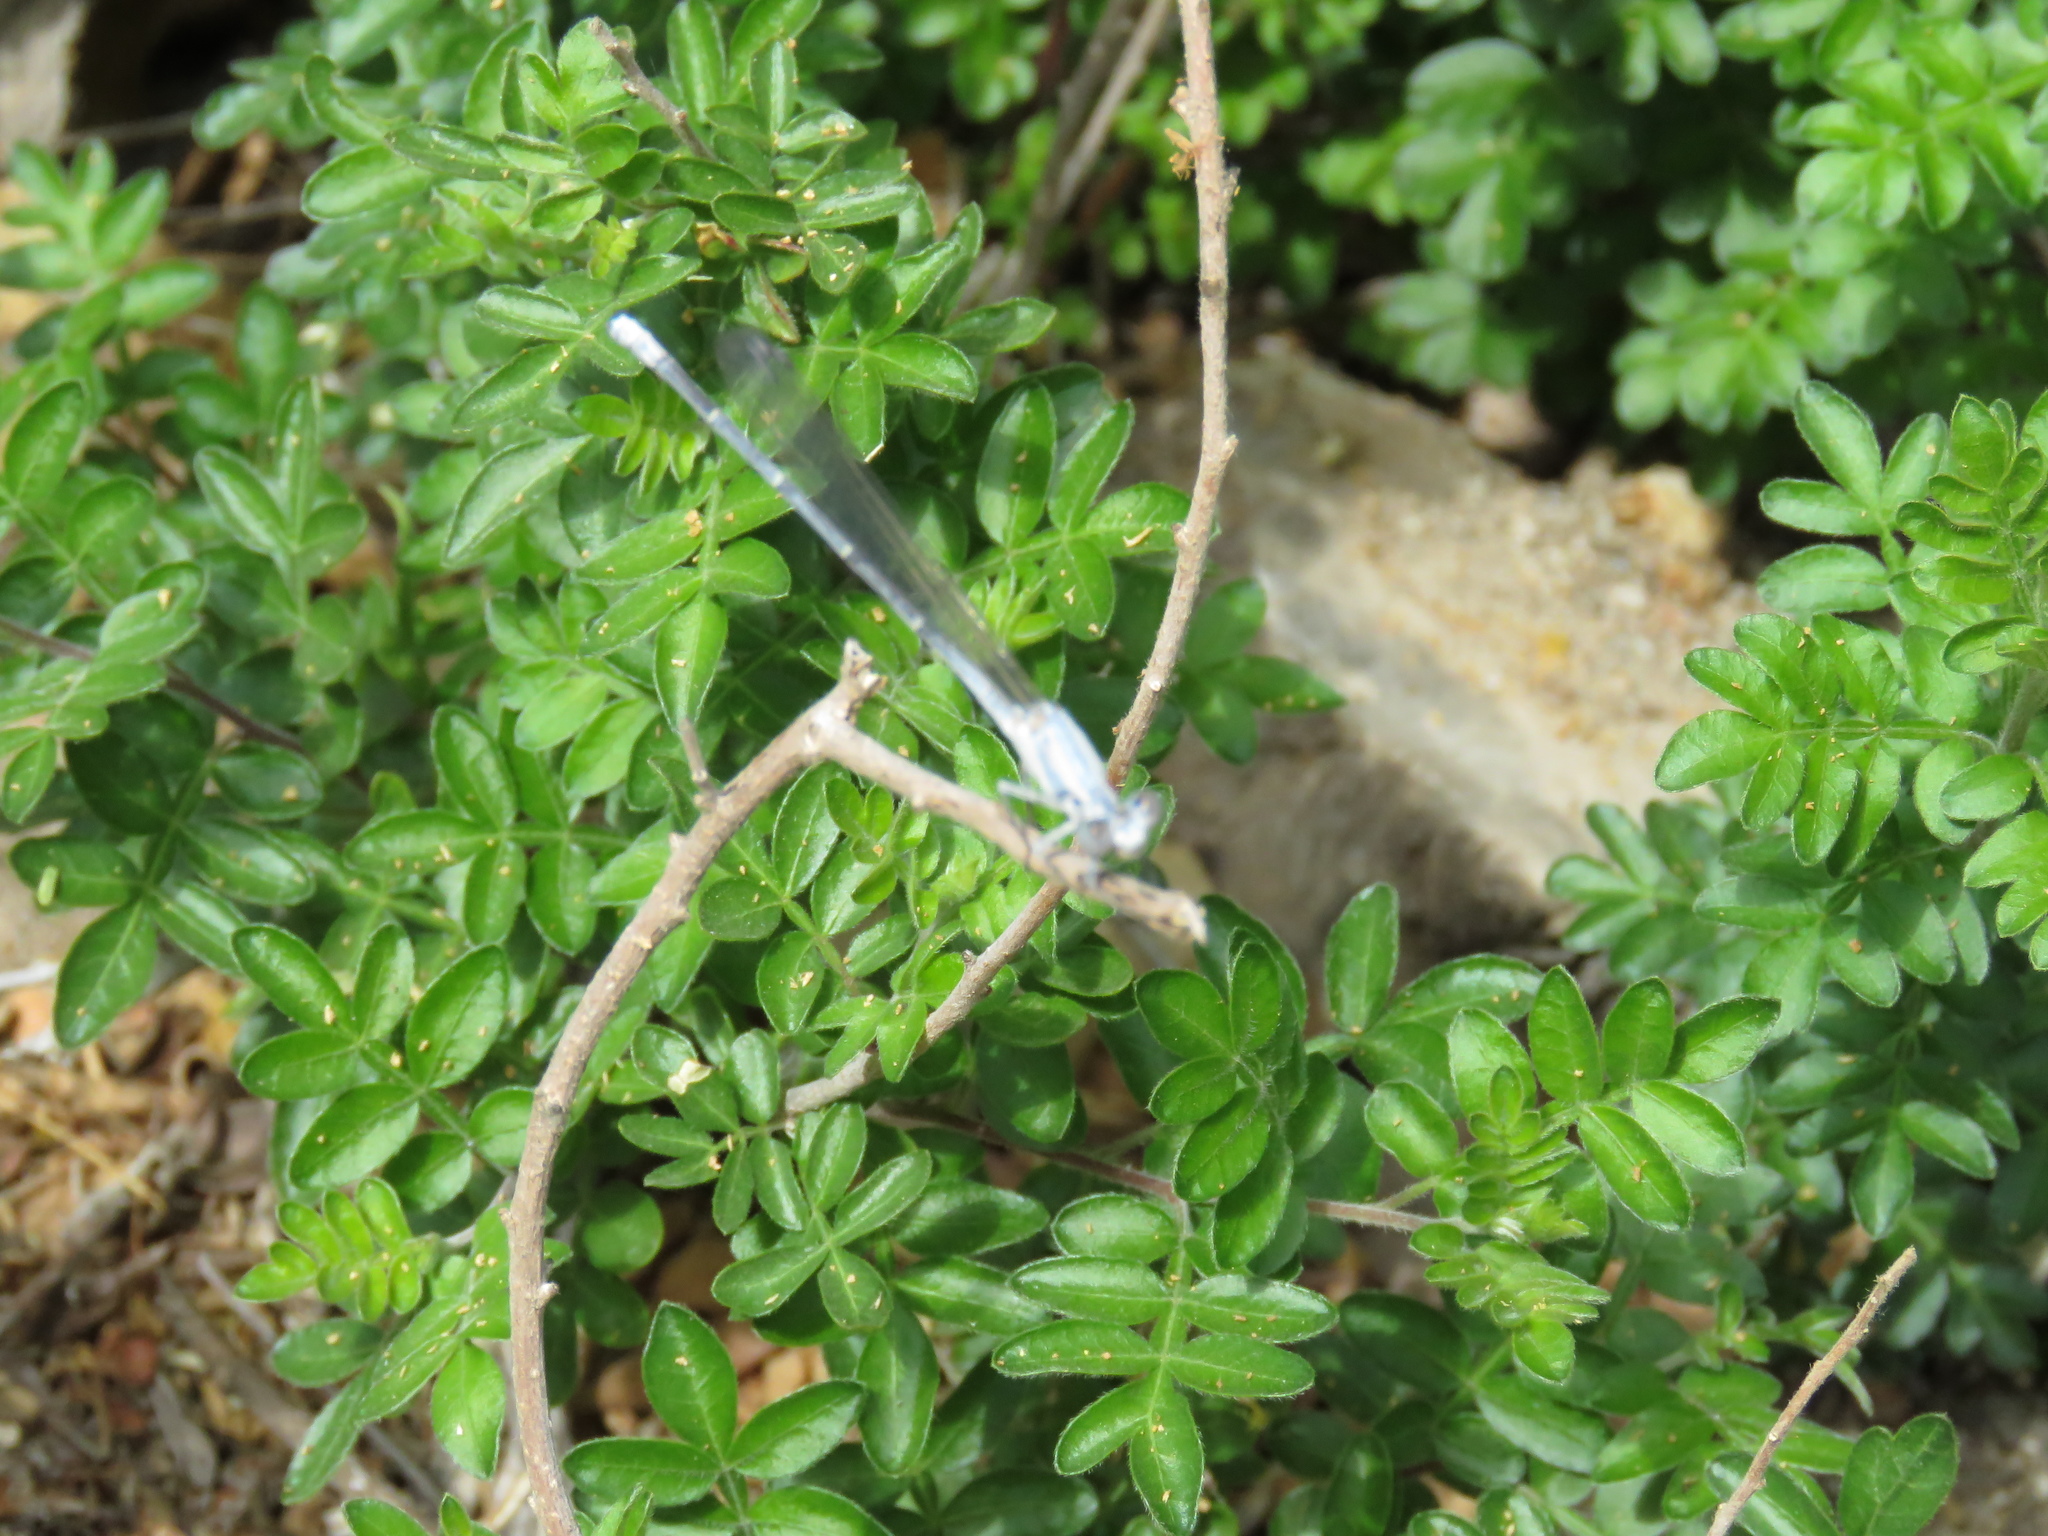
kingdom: Animalia
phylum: Arthropoda
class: Insecta
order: Odonata
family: Coenagrionidae
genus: Argia
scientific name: Argia moesta
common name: Powdered dancer
